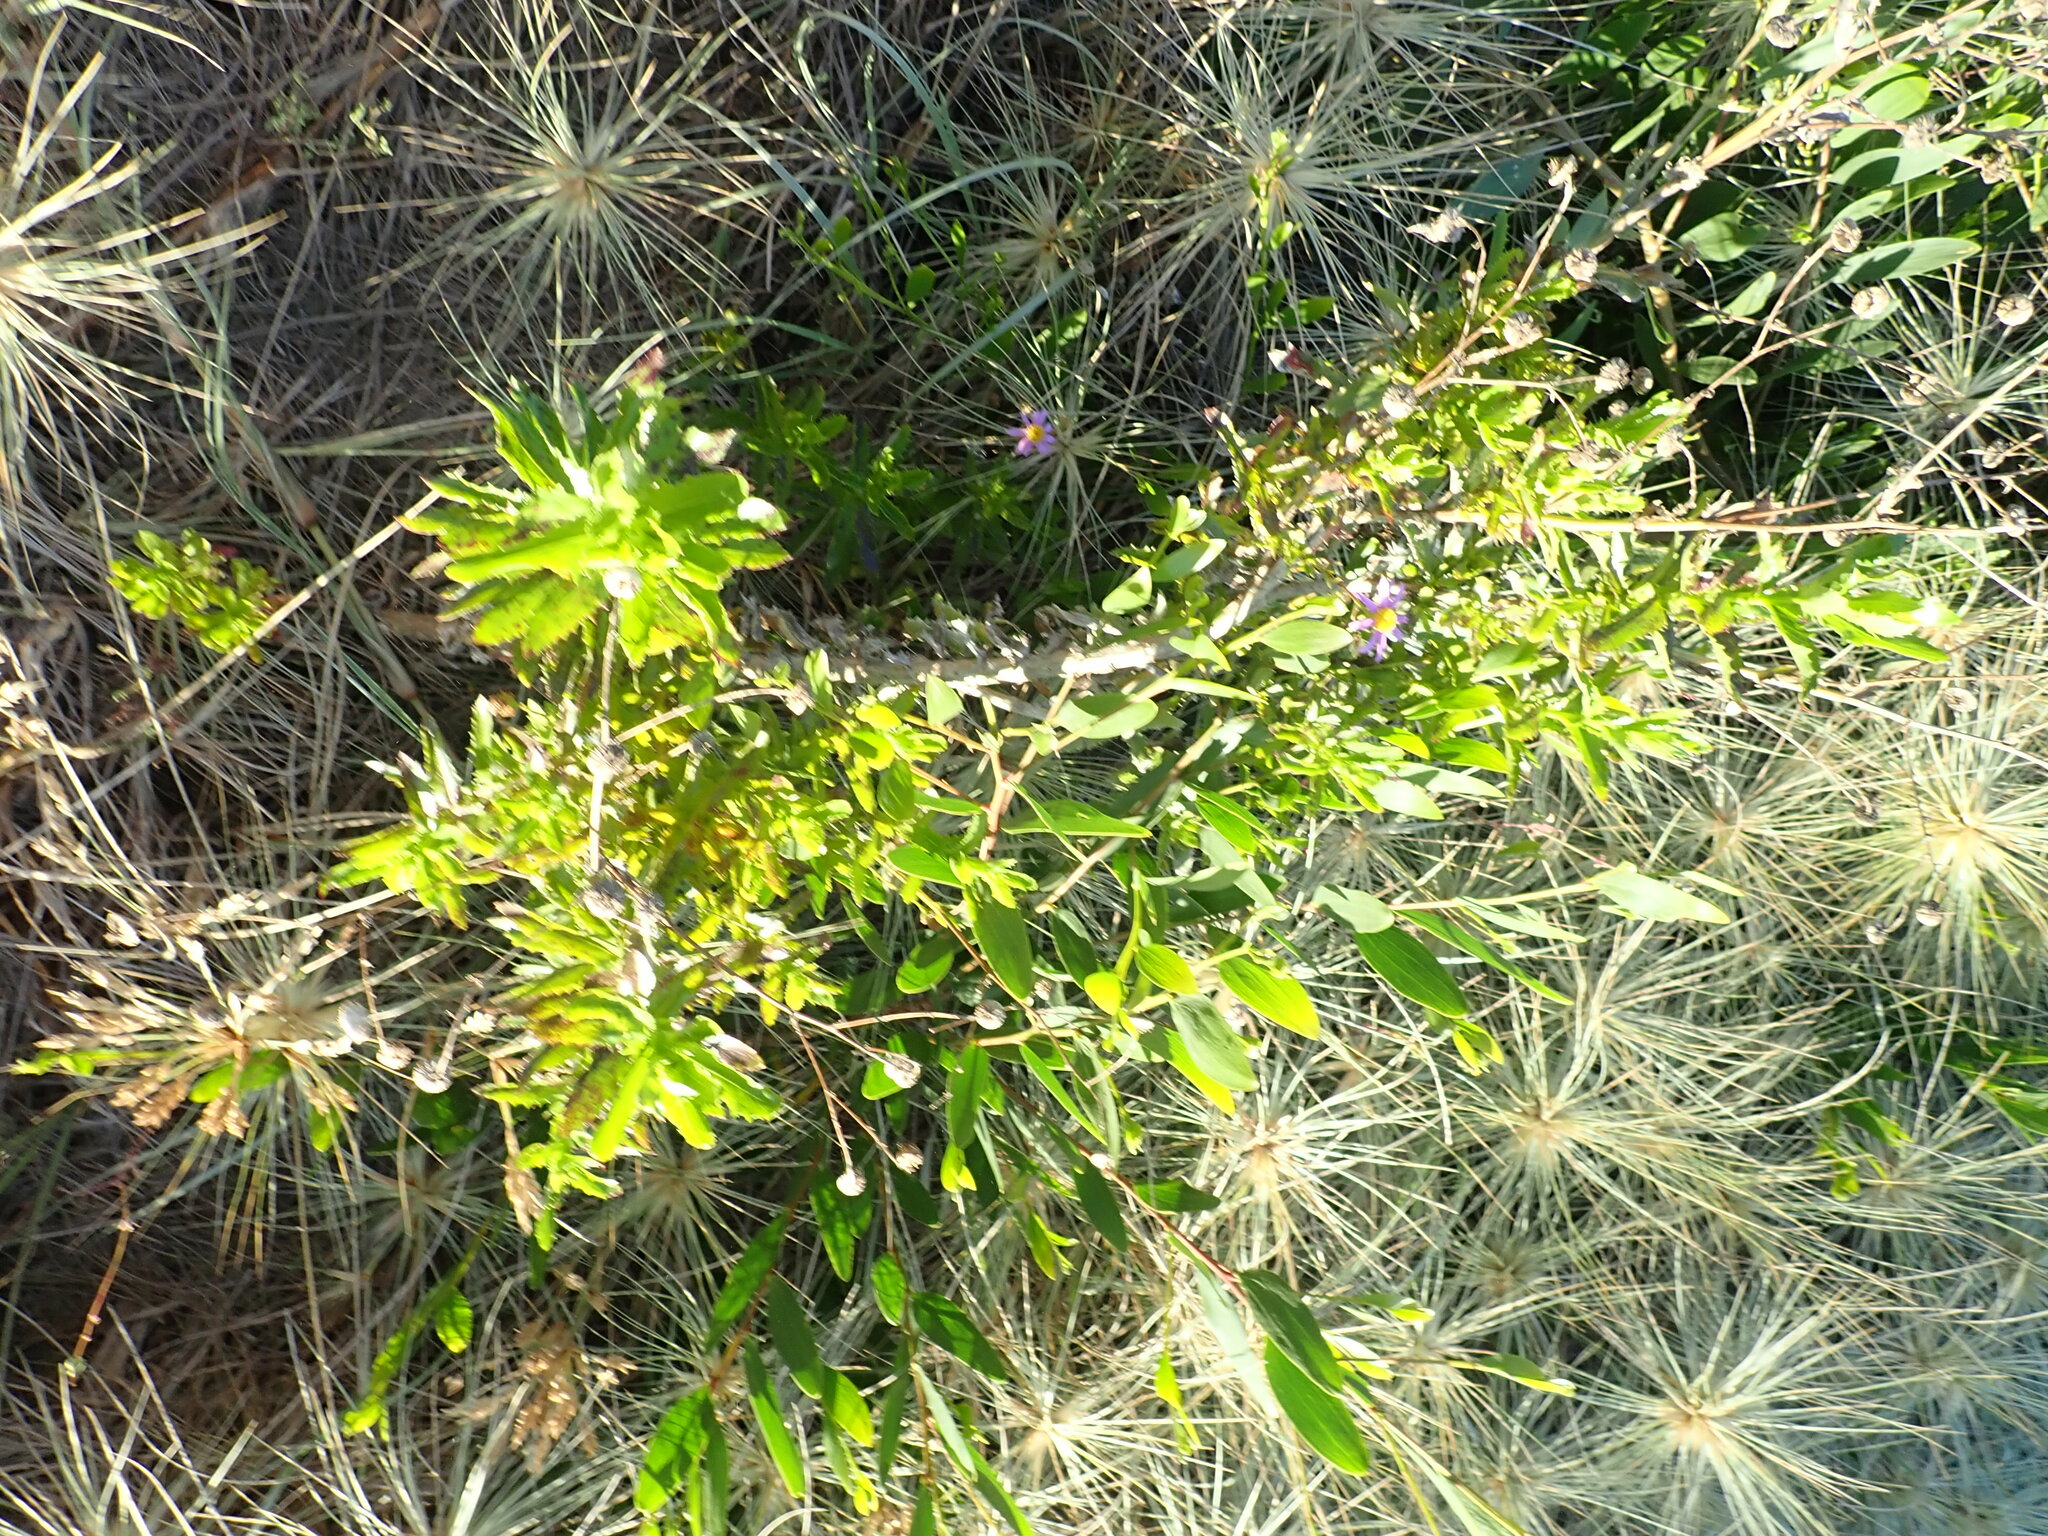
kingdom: Plantae
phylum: Tracheophyta
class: Magnoliopsida
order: Asterales
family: Asteraceae
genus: Senecio
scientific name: Senecio glastifolius
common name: Woad-leaved ragwort
